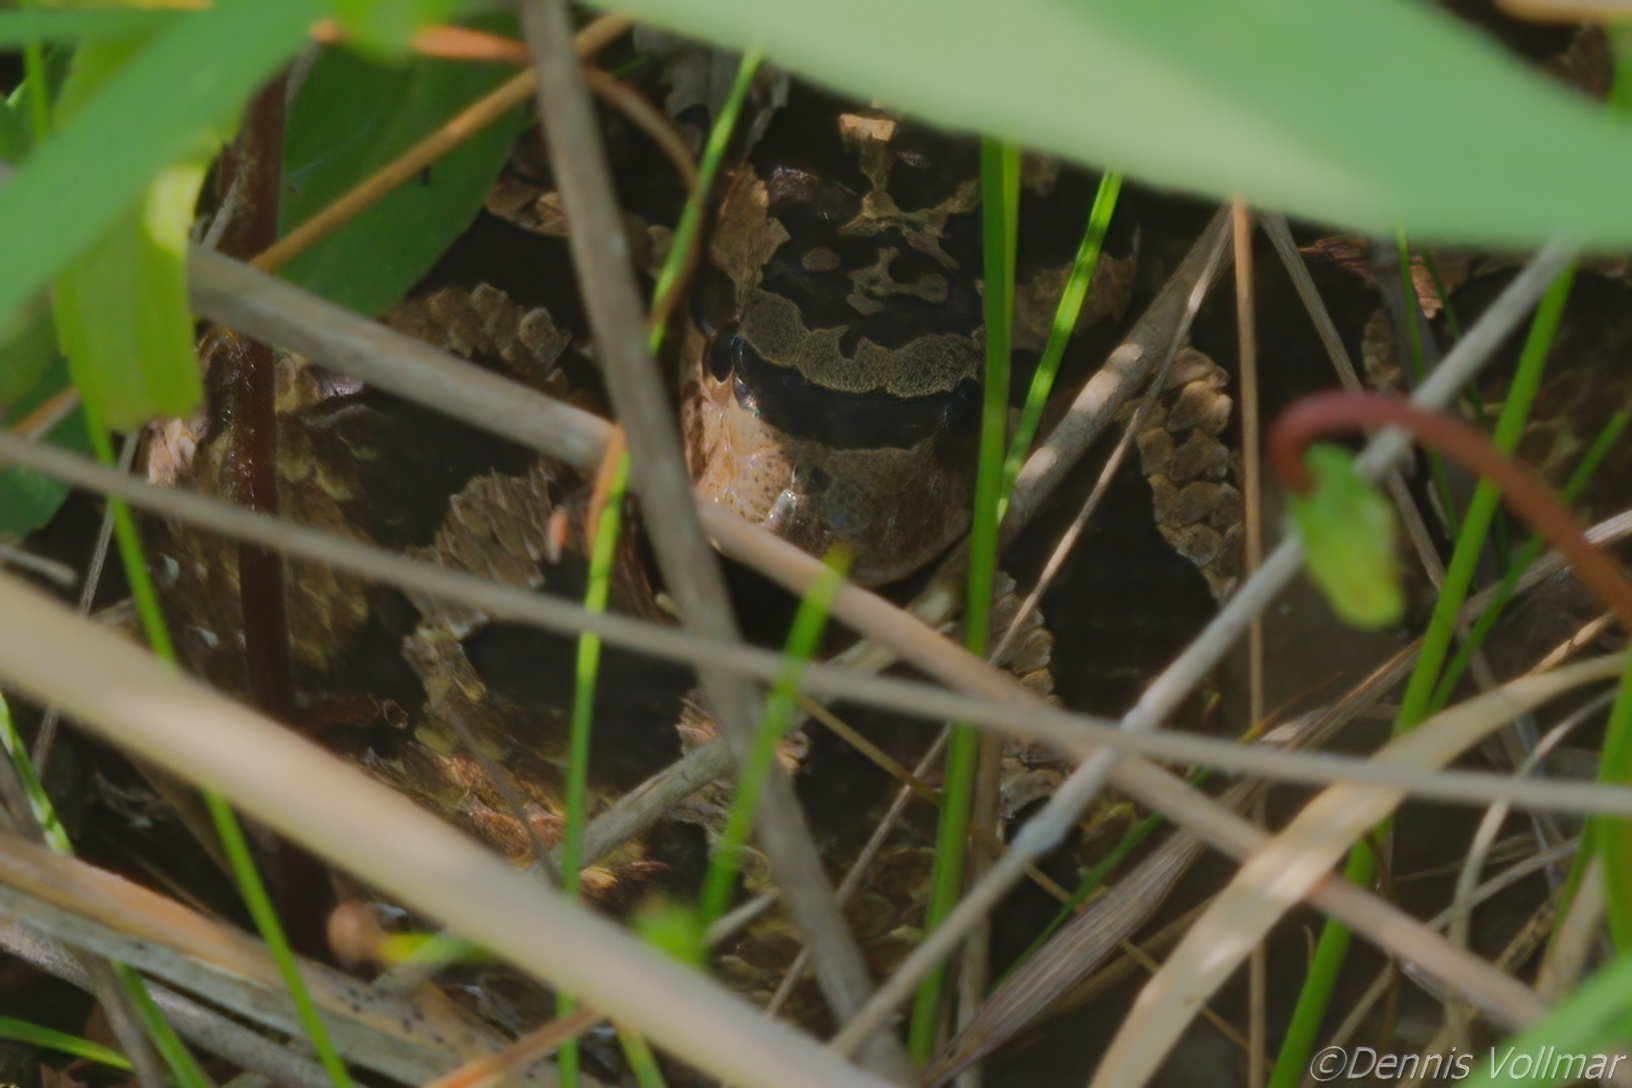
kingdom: Animalia
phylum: Chordata
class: Squamata
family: Colubridae
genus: Heterodon
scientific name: Heterodon platirhinos
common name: Eastern hognose snake
